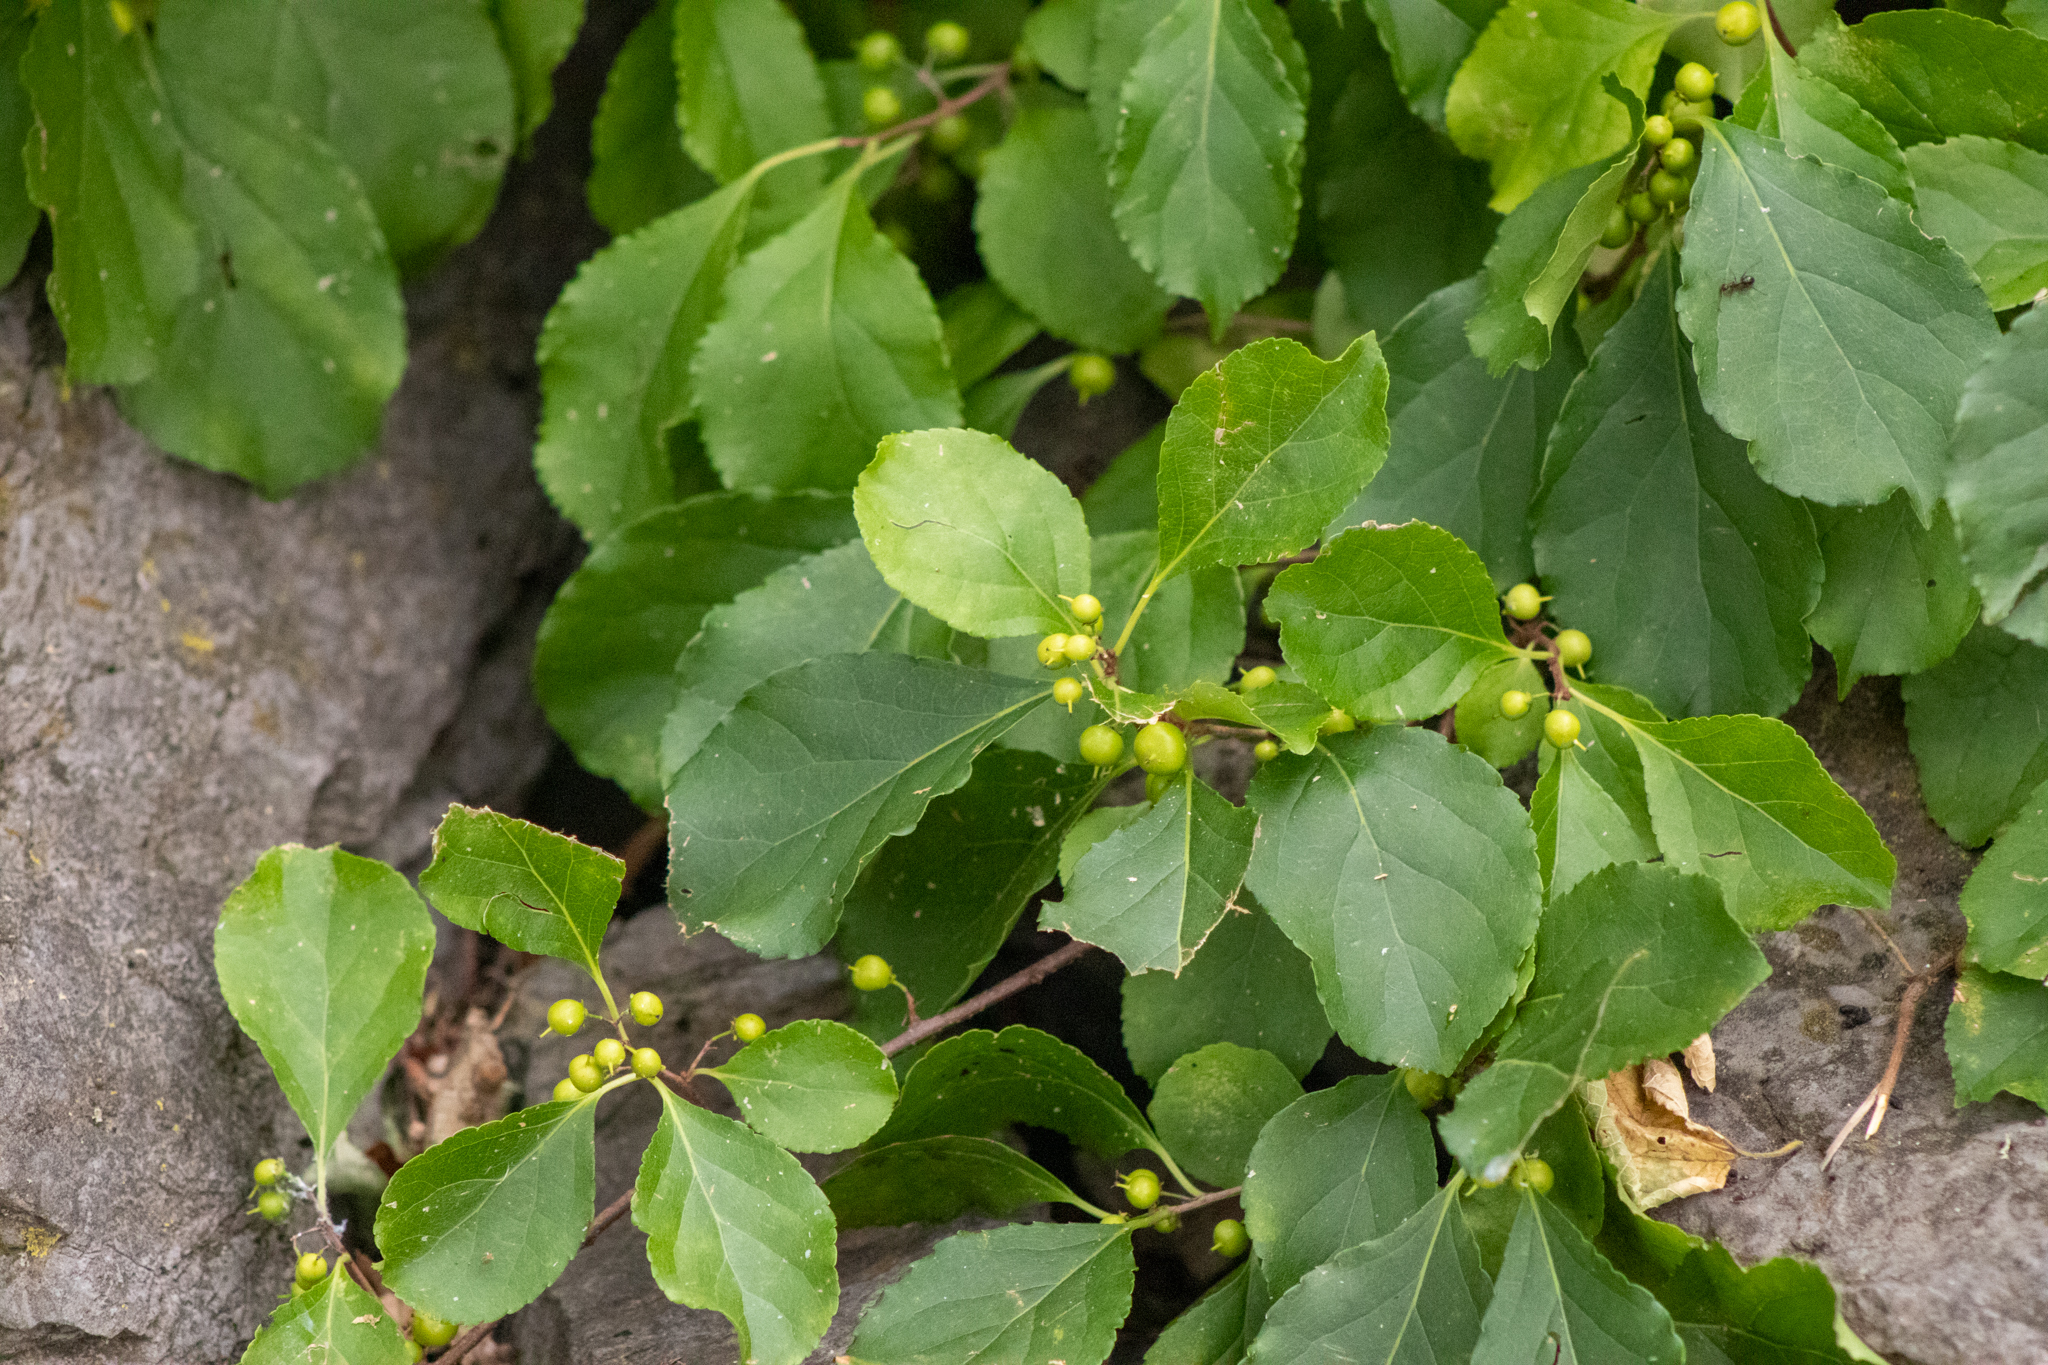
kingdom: Plantae
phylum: Tracheophyta
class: Magnoliopsida
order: Celastrales
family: Celastraceae
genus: Celastrus
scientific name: Celastrus orbiculatus
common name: Oriental bittersweet
